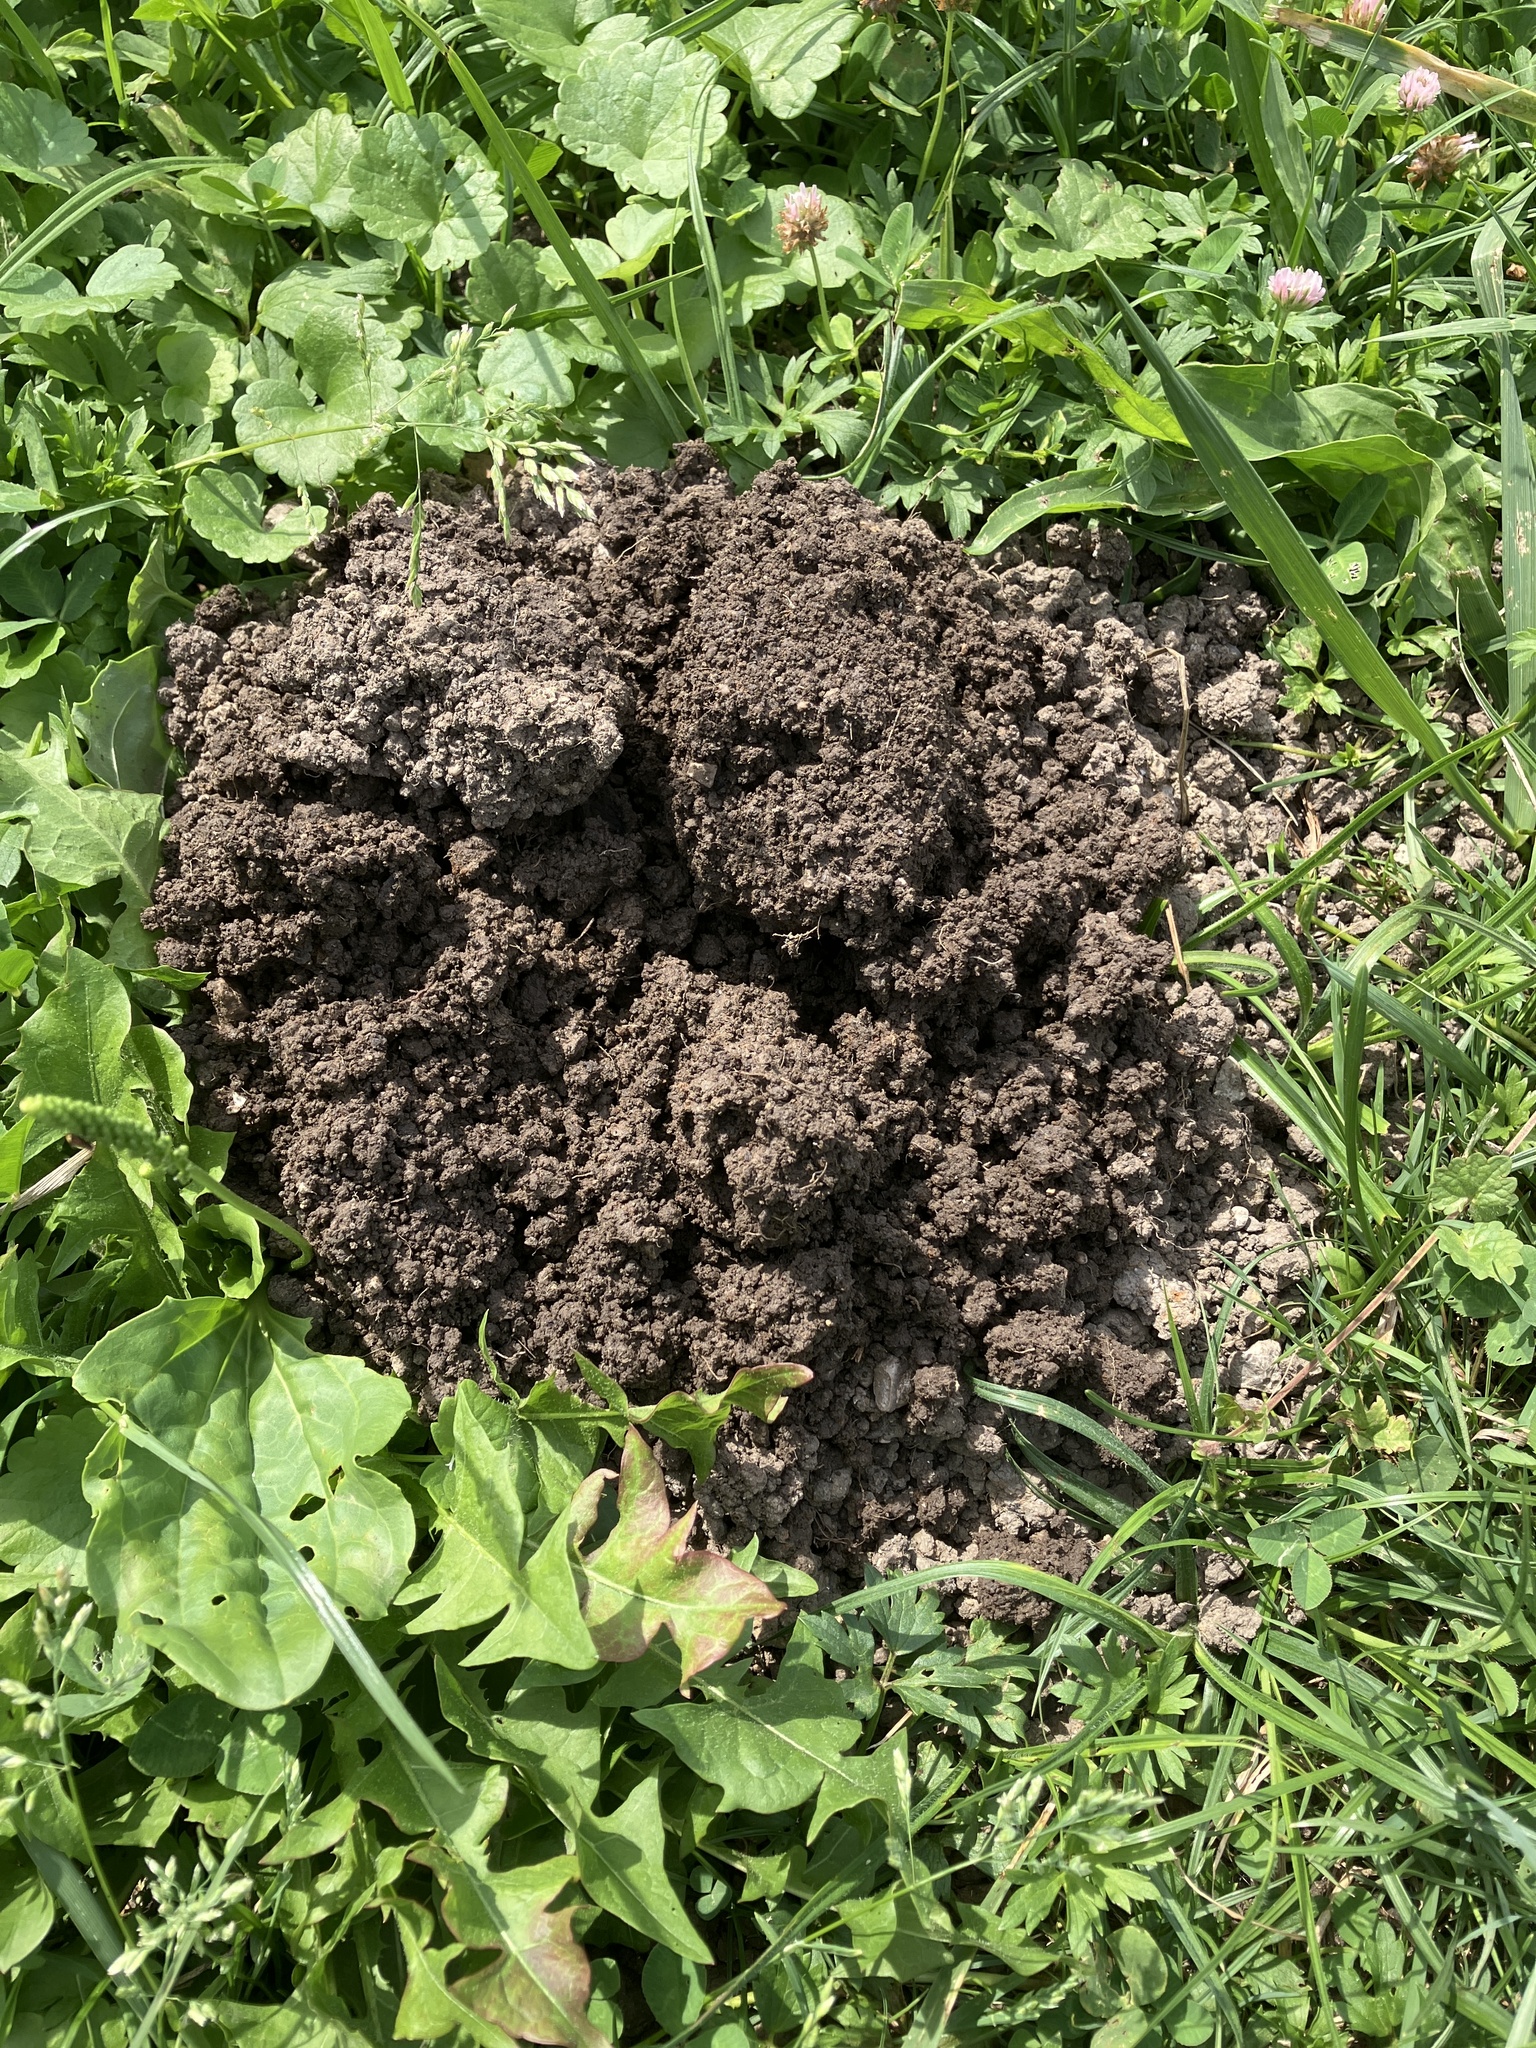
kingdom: Animalia
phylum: Chordata
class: Mammalia
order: Soricomorpha
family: Talpidae
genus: Talpa
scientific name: Talpa europaea
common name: European mole
